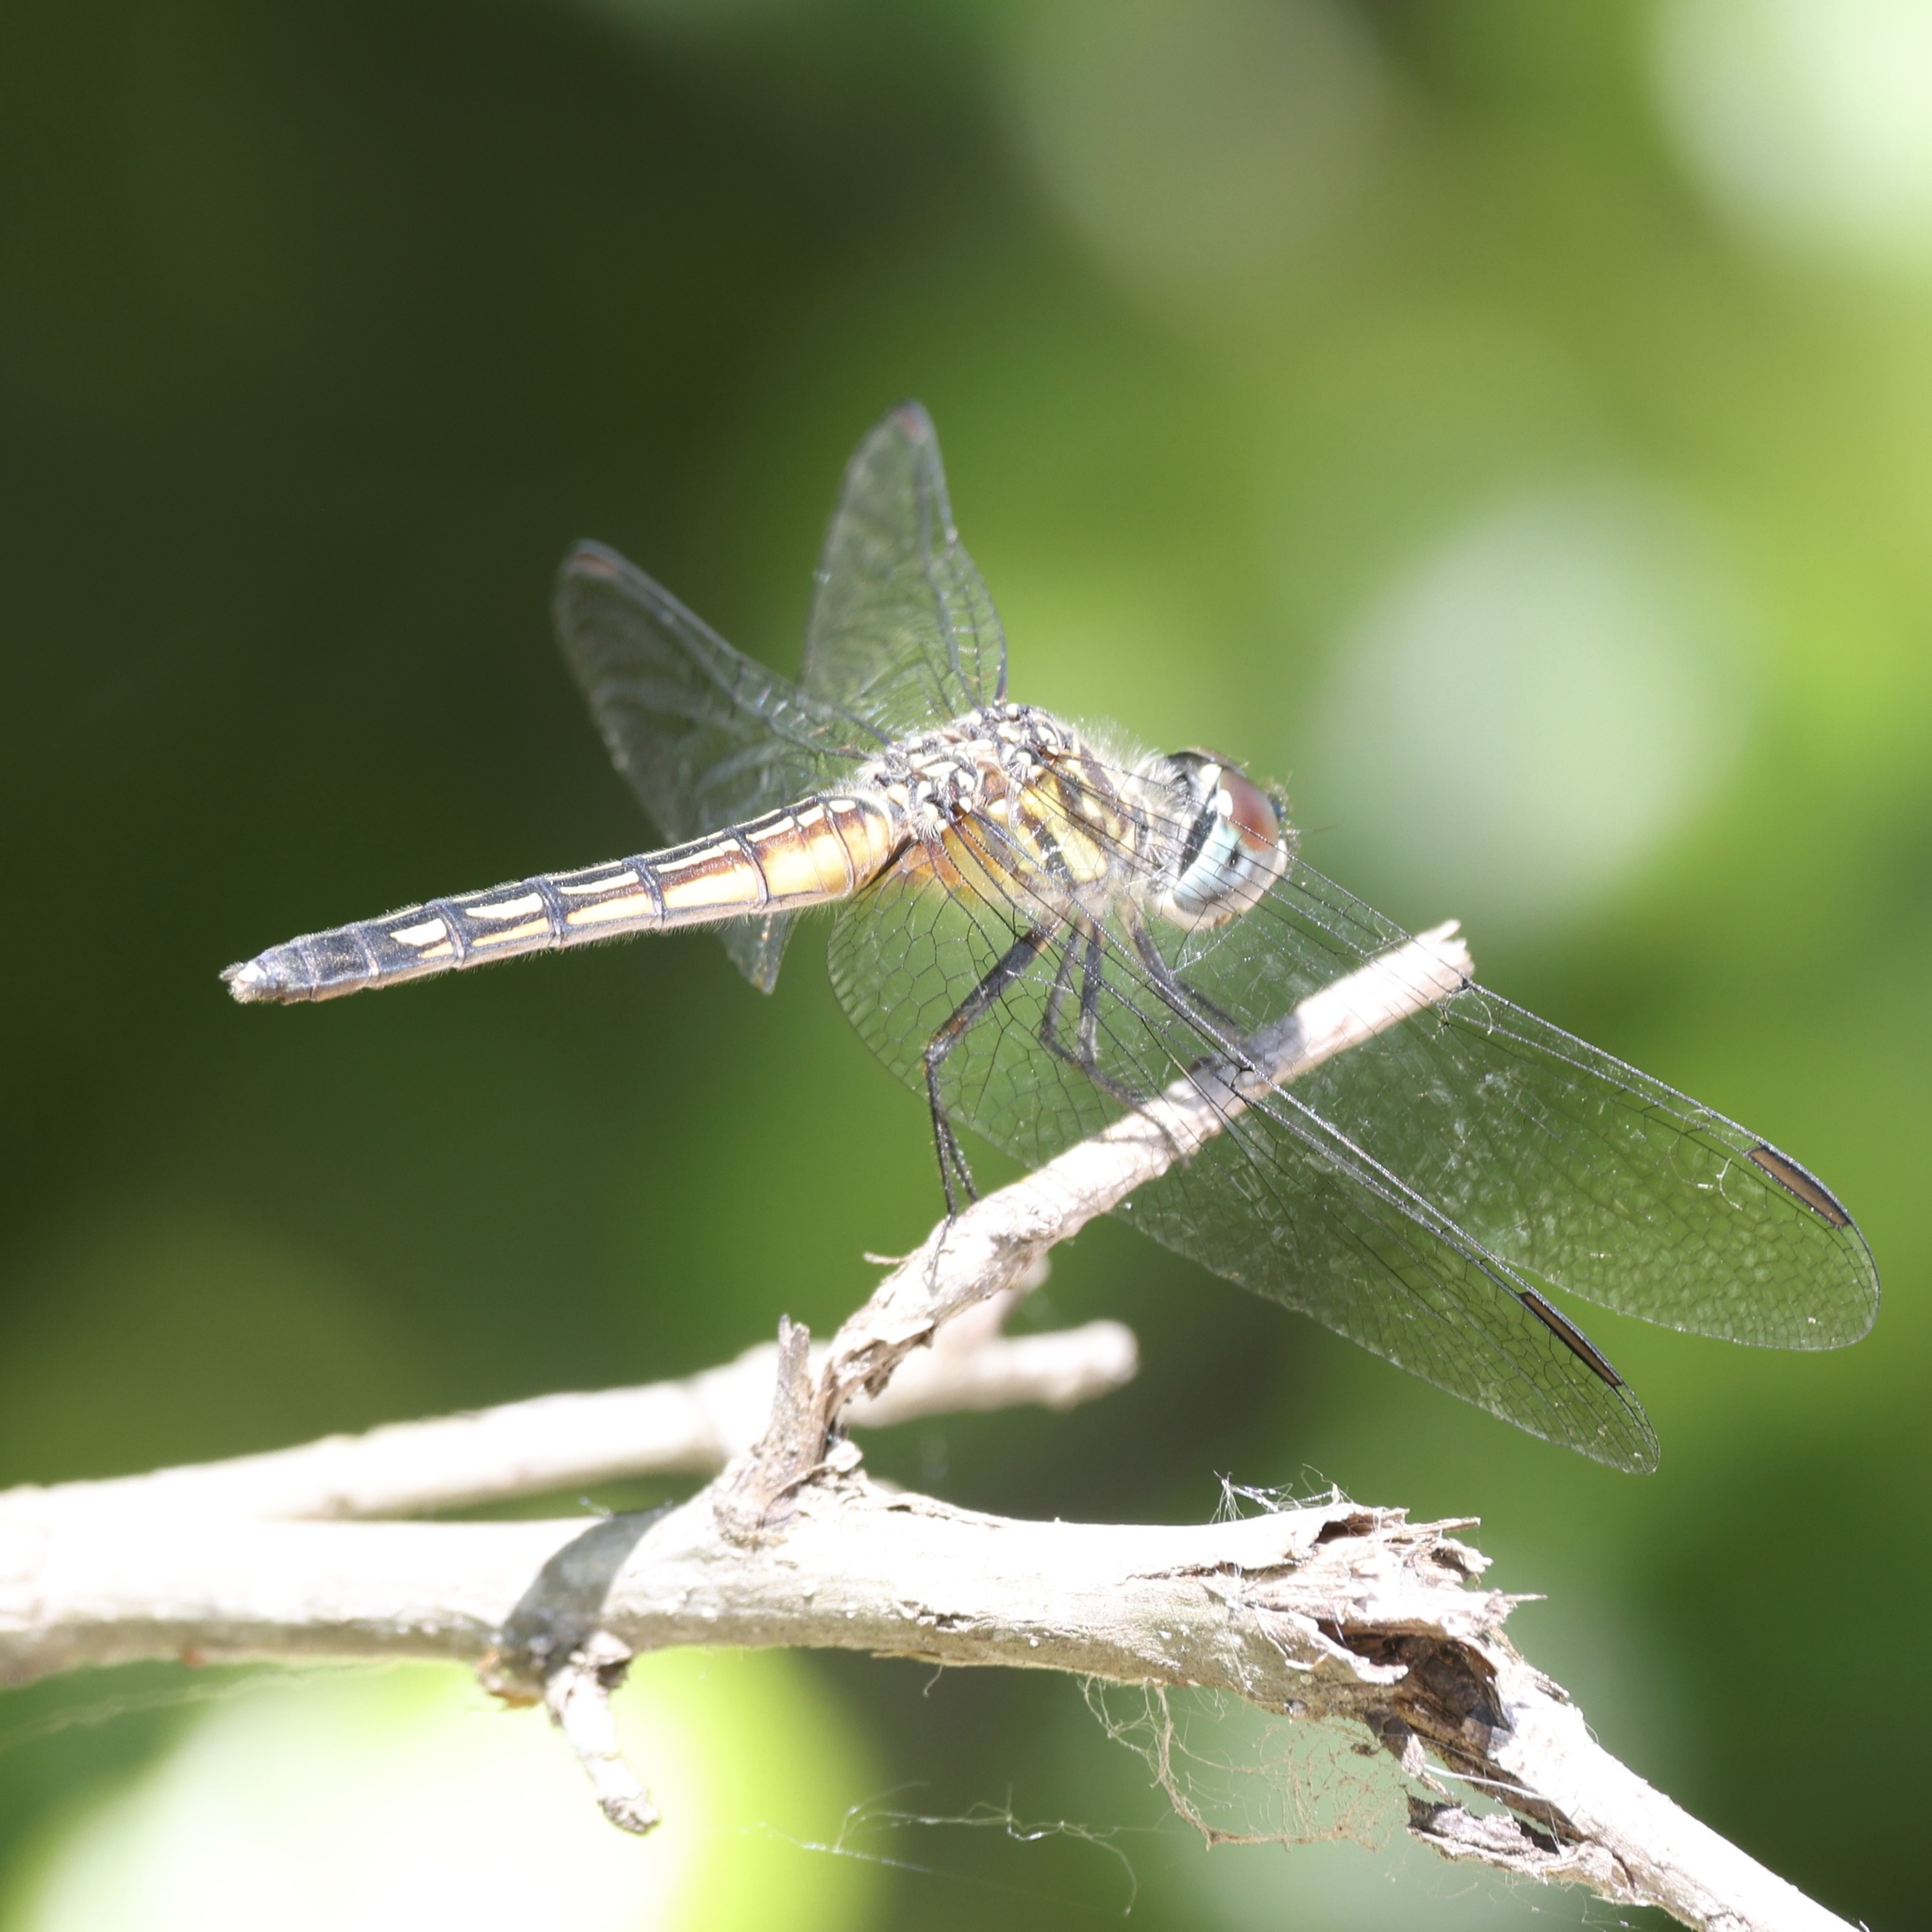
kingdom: Animalia
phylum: Arthropoda
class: Insecta
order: Odonata
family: Libellulidae
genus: Pachydiplax
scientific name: Pachydiplax longipennis
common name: Blue dasher
